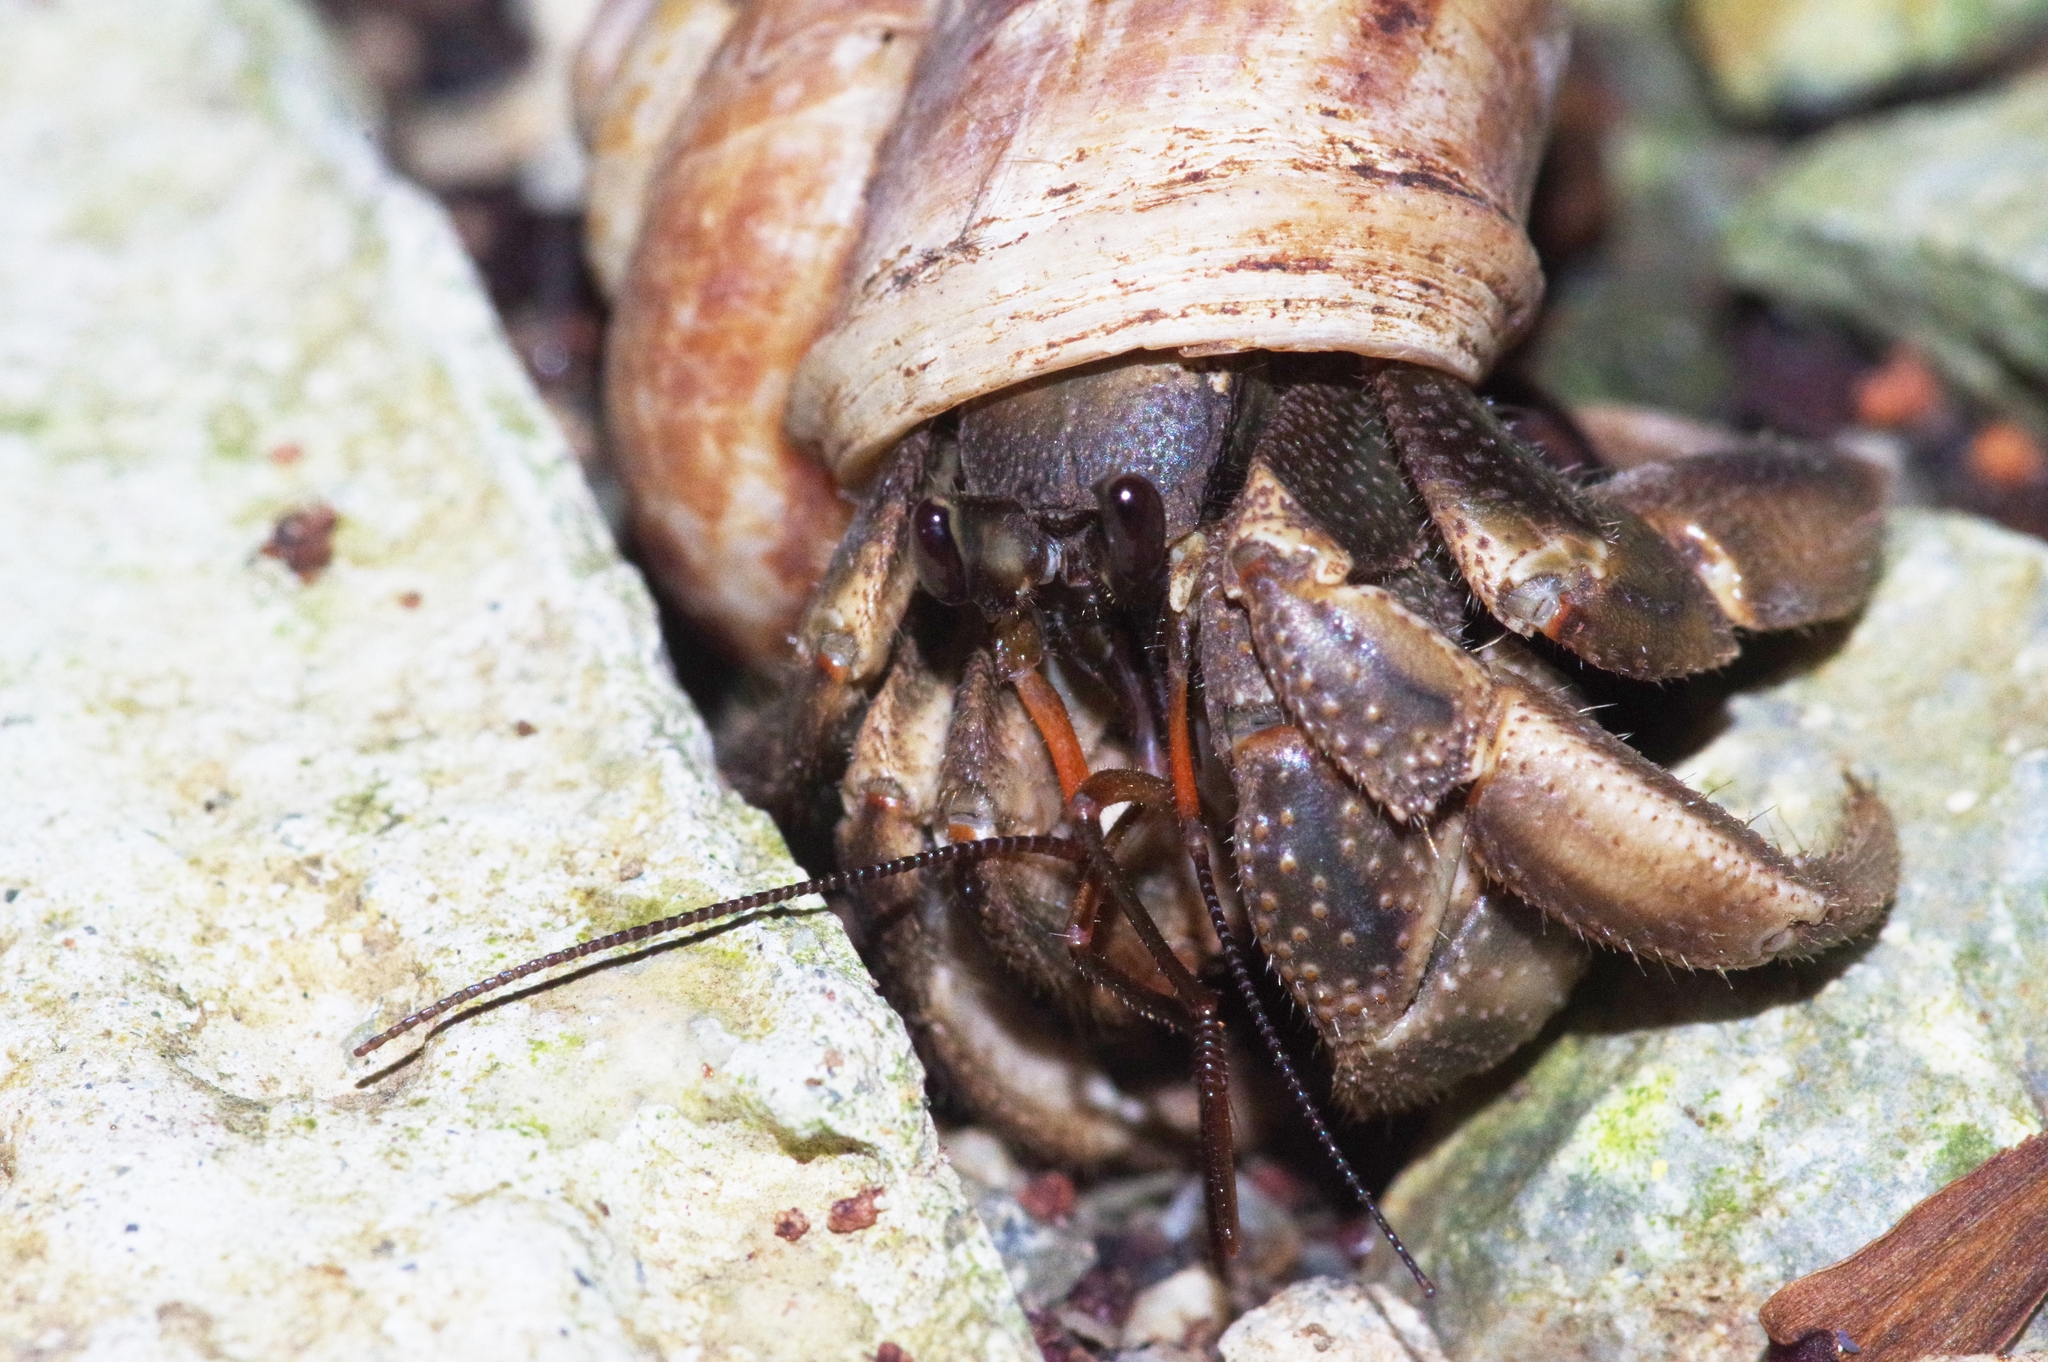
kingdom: Animalia
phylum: Arthropoda
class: Malacostraca
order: Decapoda
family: Coenobitidae
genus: Coenobita
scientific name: Coenobita cavipes
